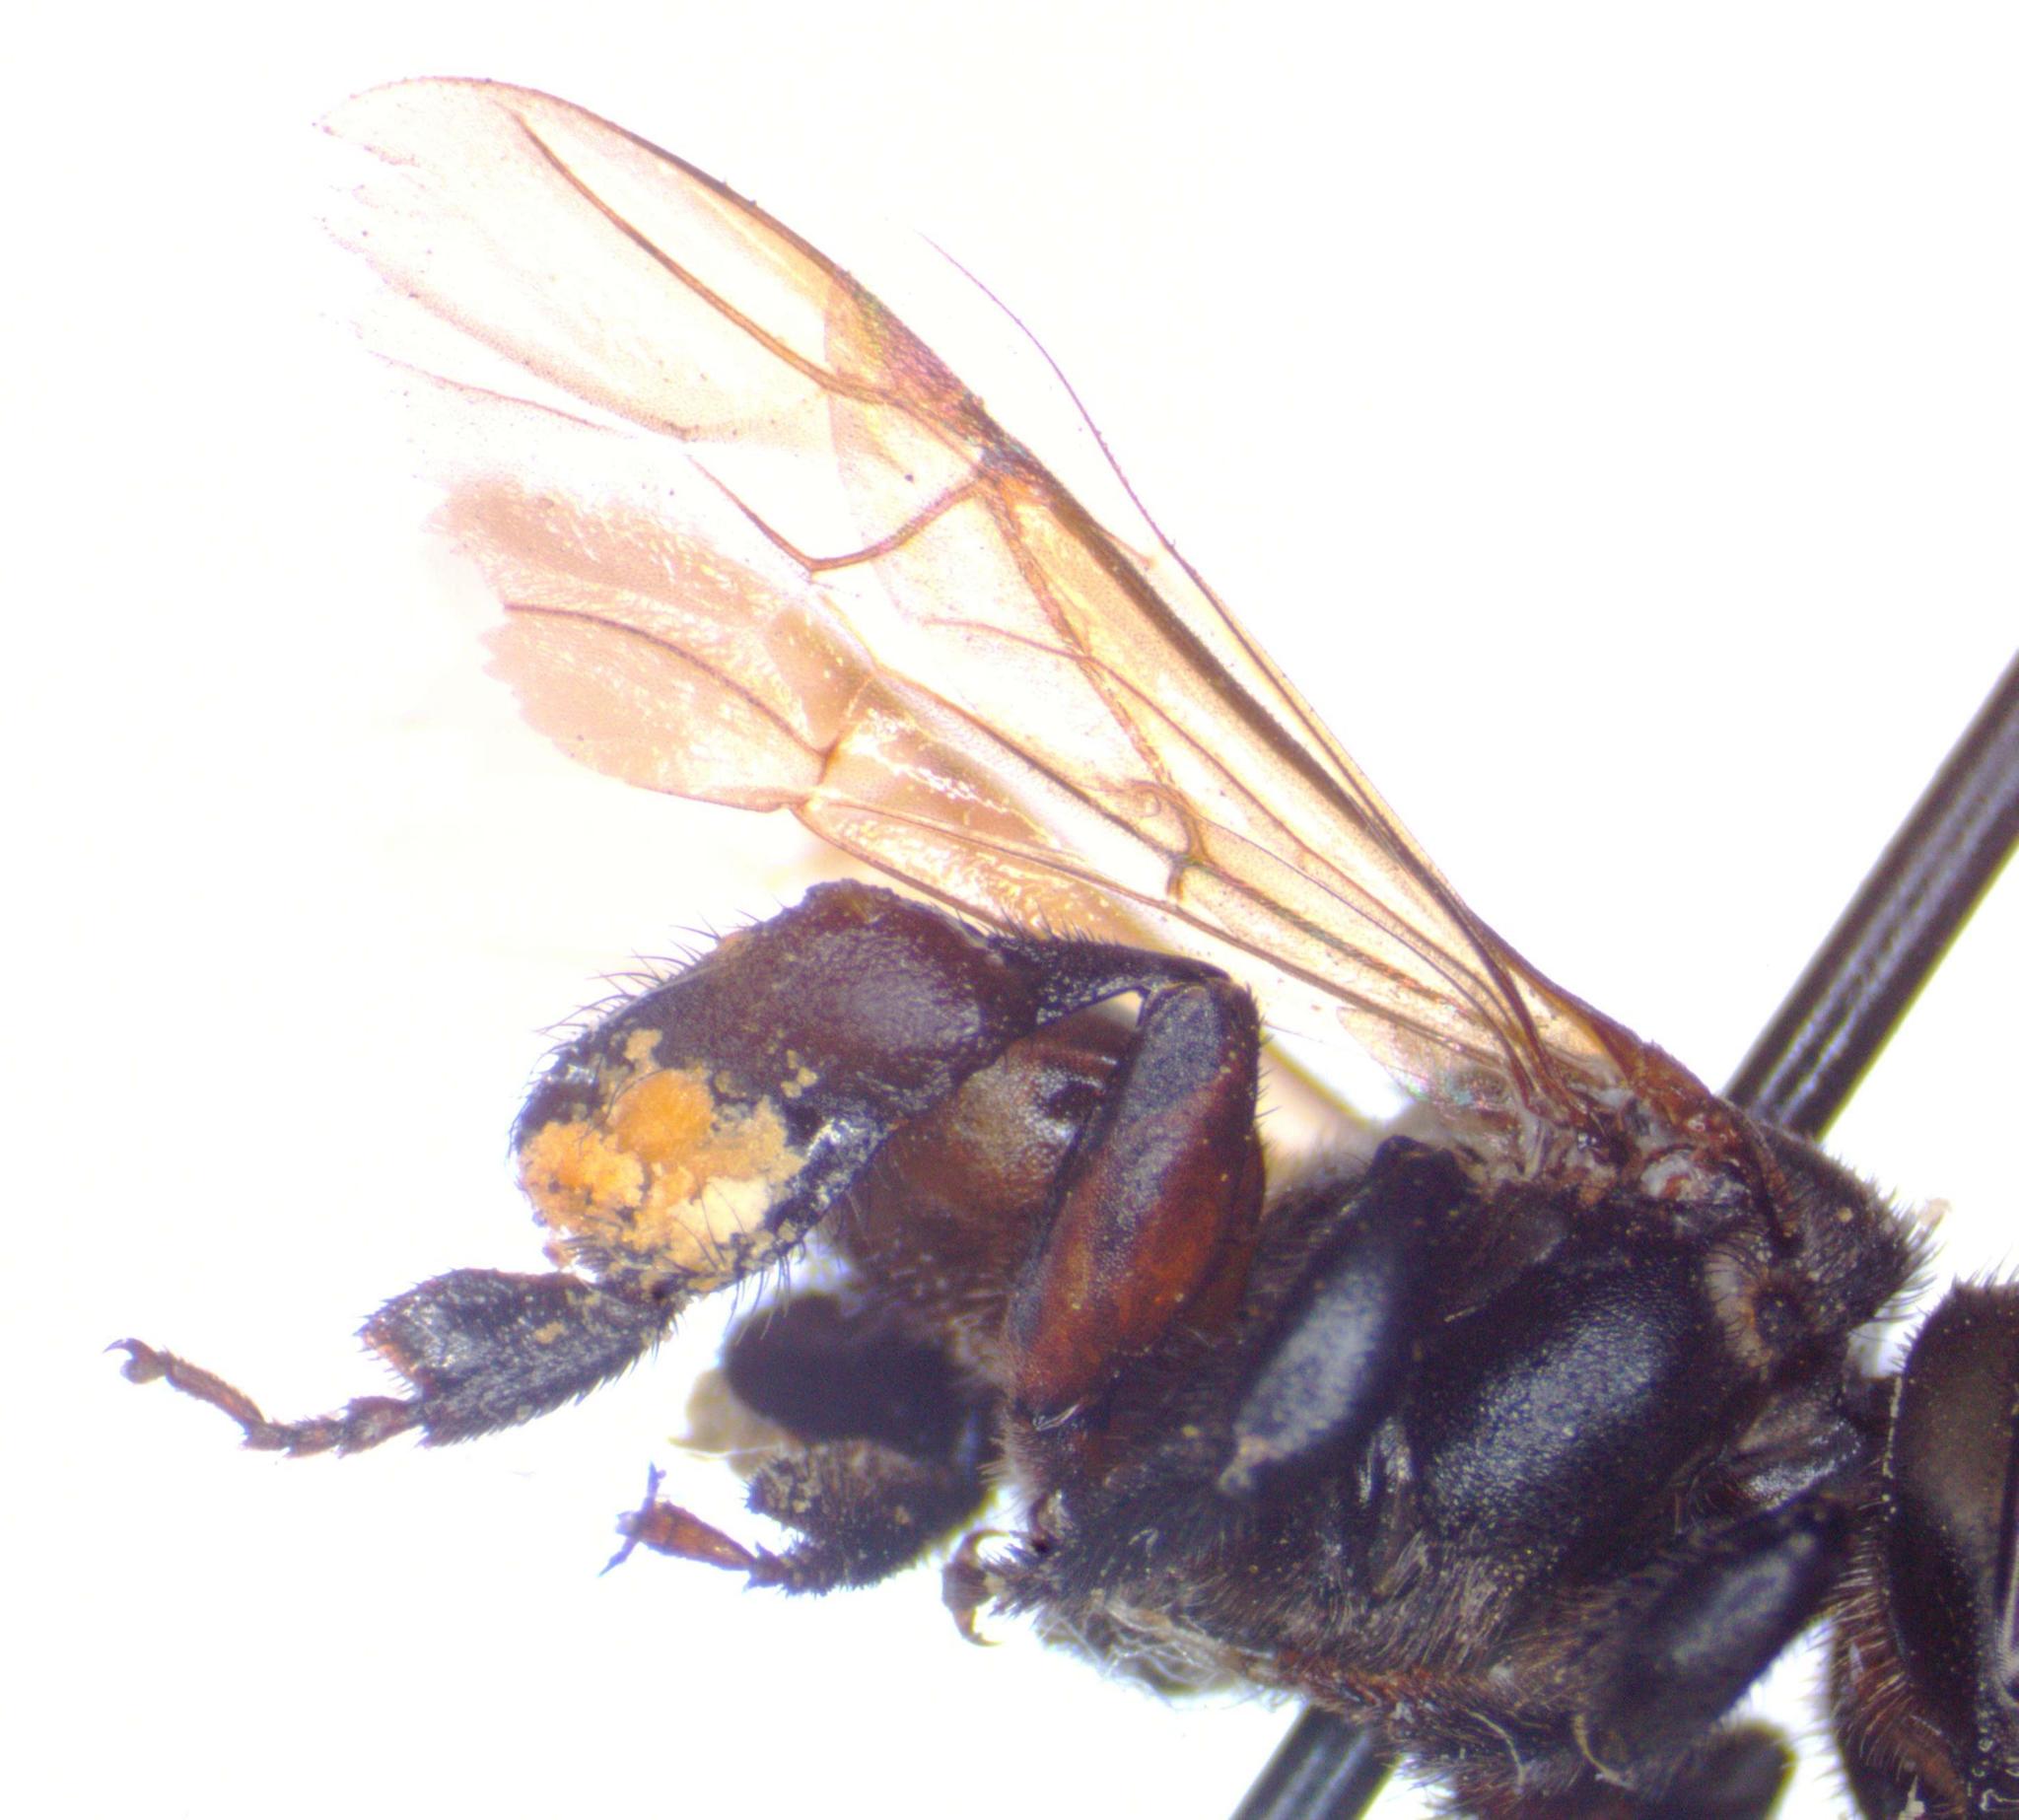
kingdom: Animalia
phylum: Arthropoda
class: Insecta
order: Hymenoptera
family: Apidae
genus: Cephalotrigona
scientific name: Cephalotrigona zexmeniae
